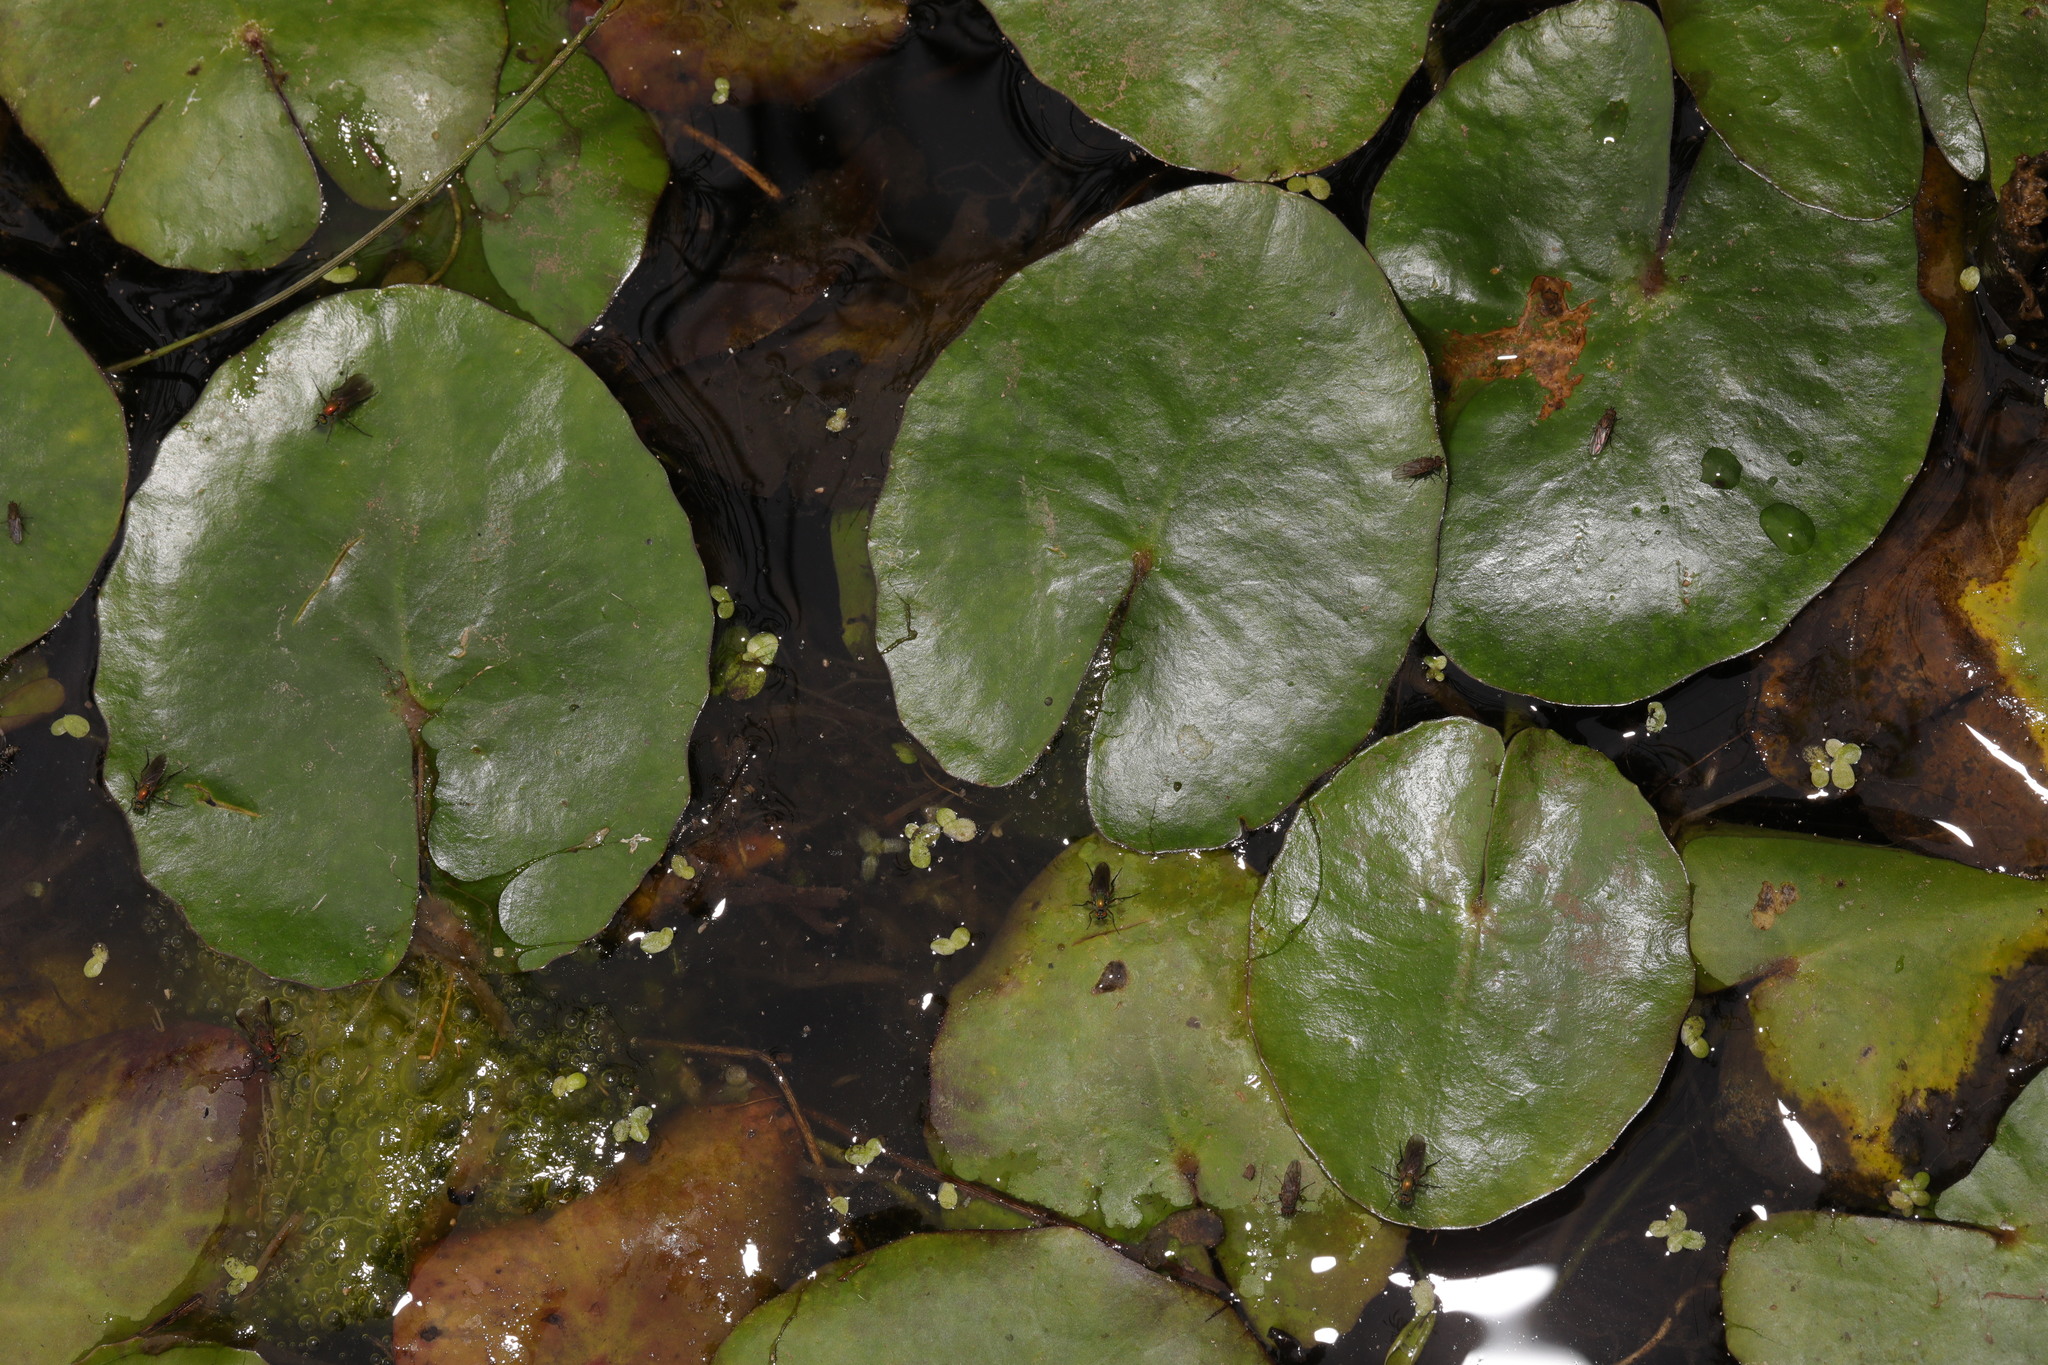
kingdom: Plantae
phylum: Tracheophyta
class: Magnoliopsida
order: Asterales
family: Menyanthaceae
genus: Nymphoides
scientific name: Nymphoides peltata
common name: Fringed water-lily
